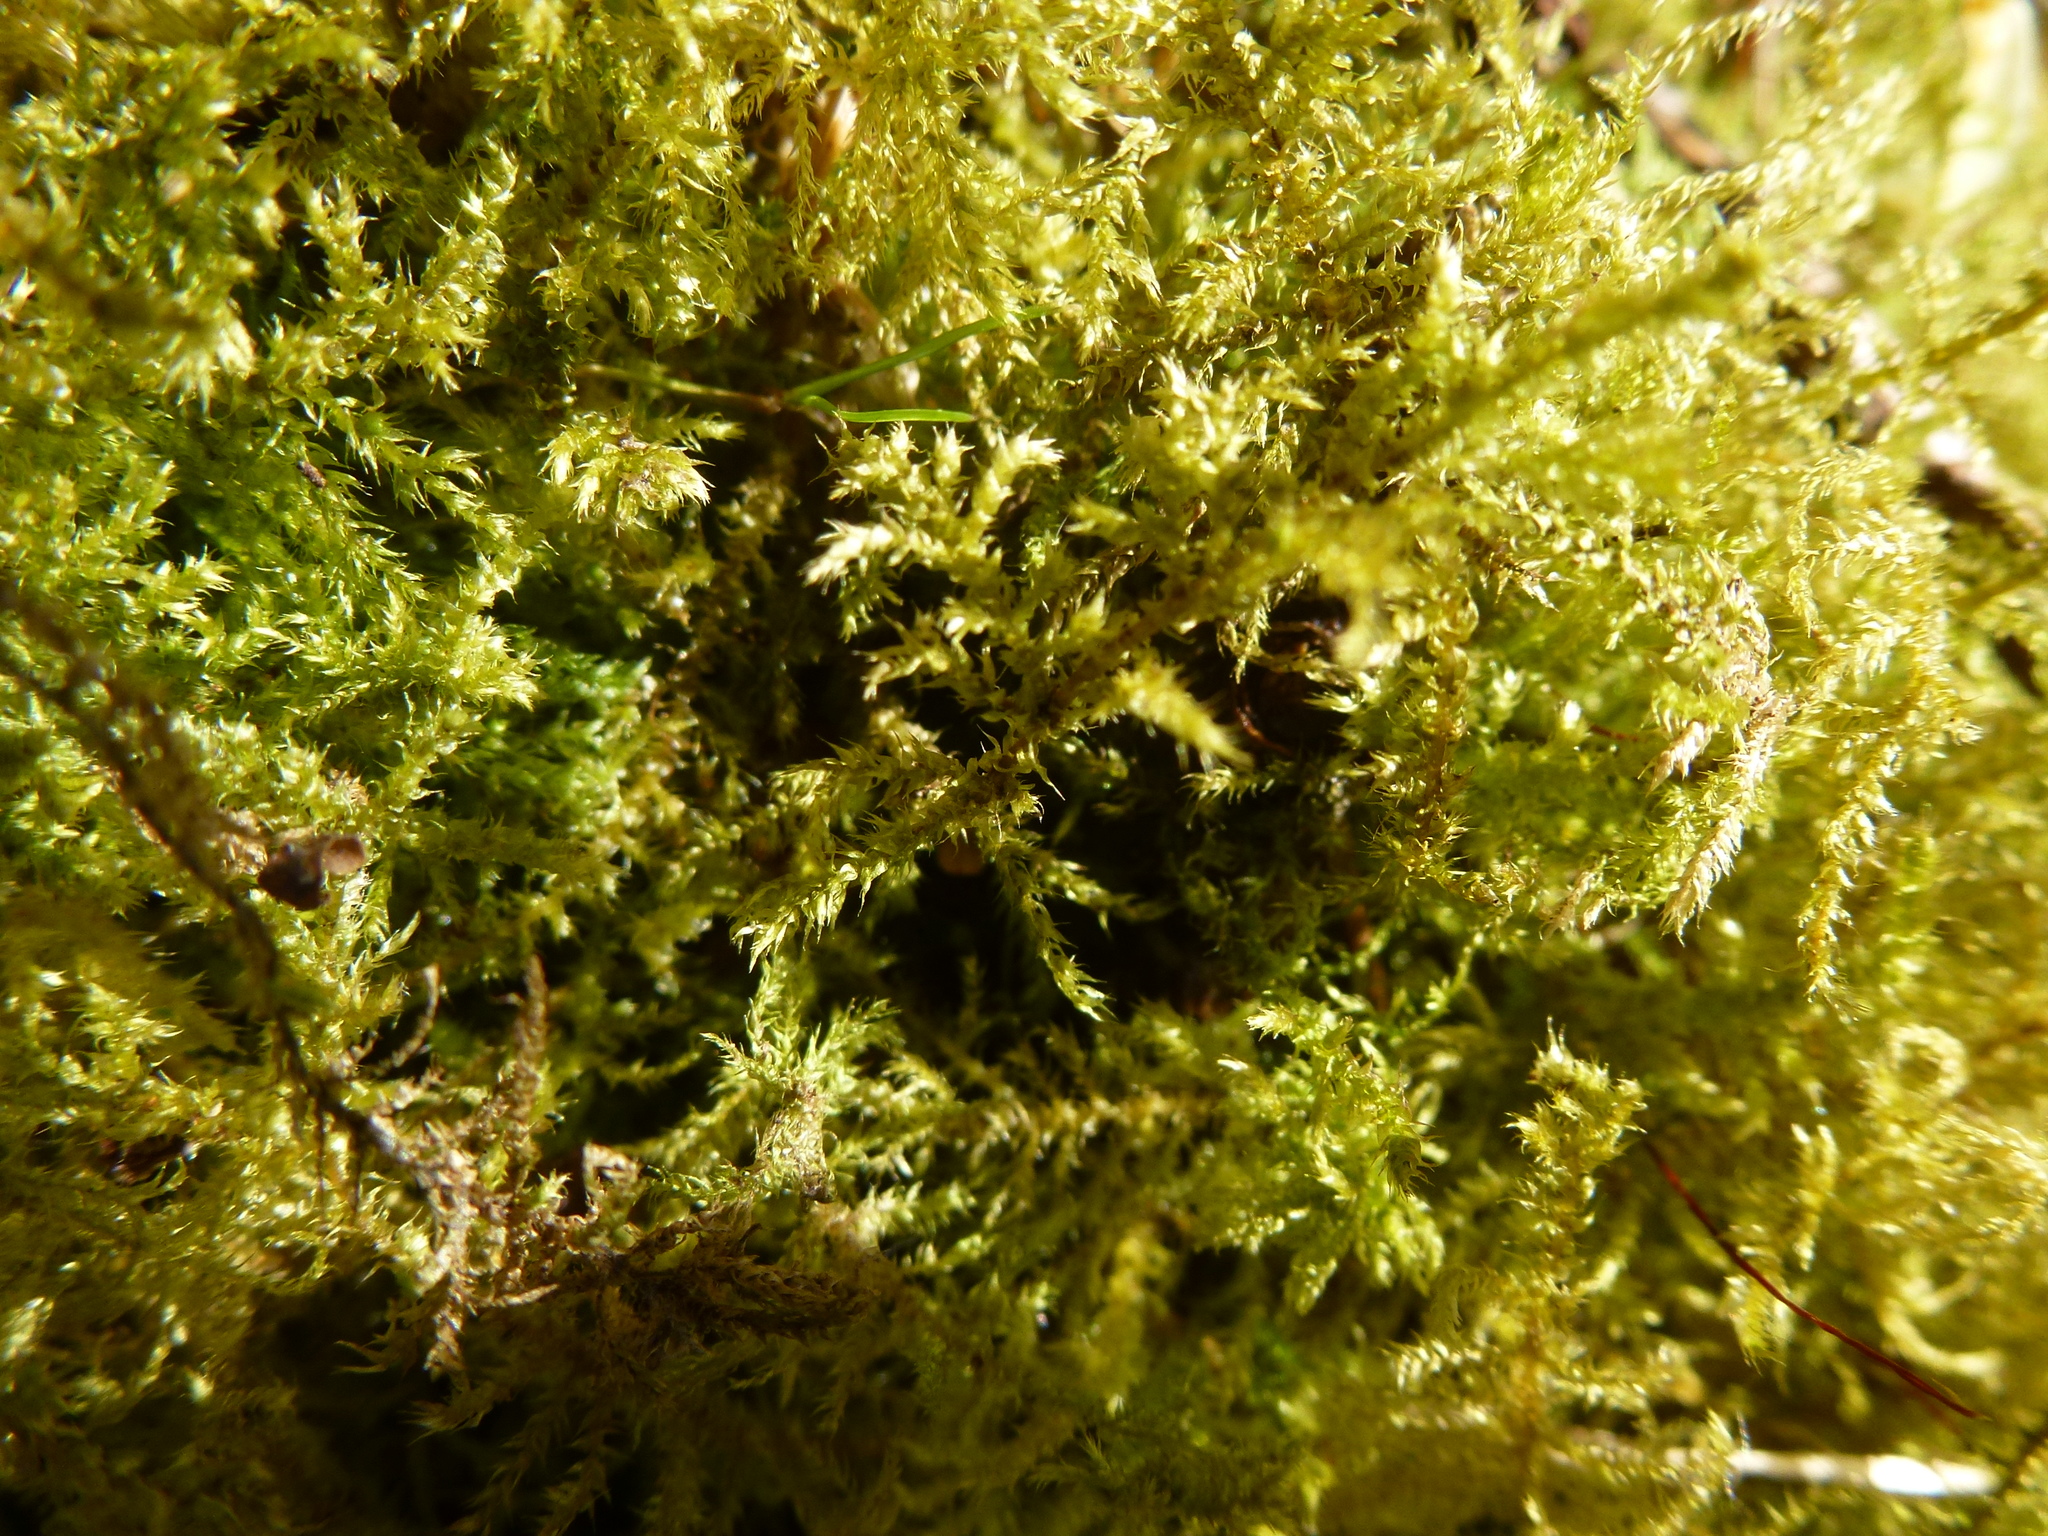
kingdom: Plantae
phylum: Bryophyta
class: Bryopsida
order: Hypnales
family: Brachytheciaceae
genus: Kindbergia
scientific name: Kindbergia praelonga
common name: Slender beaked moss
